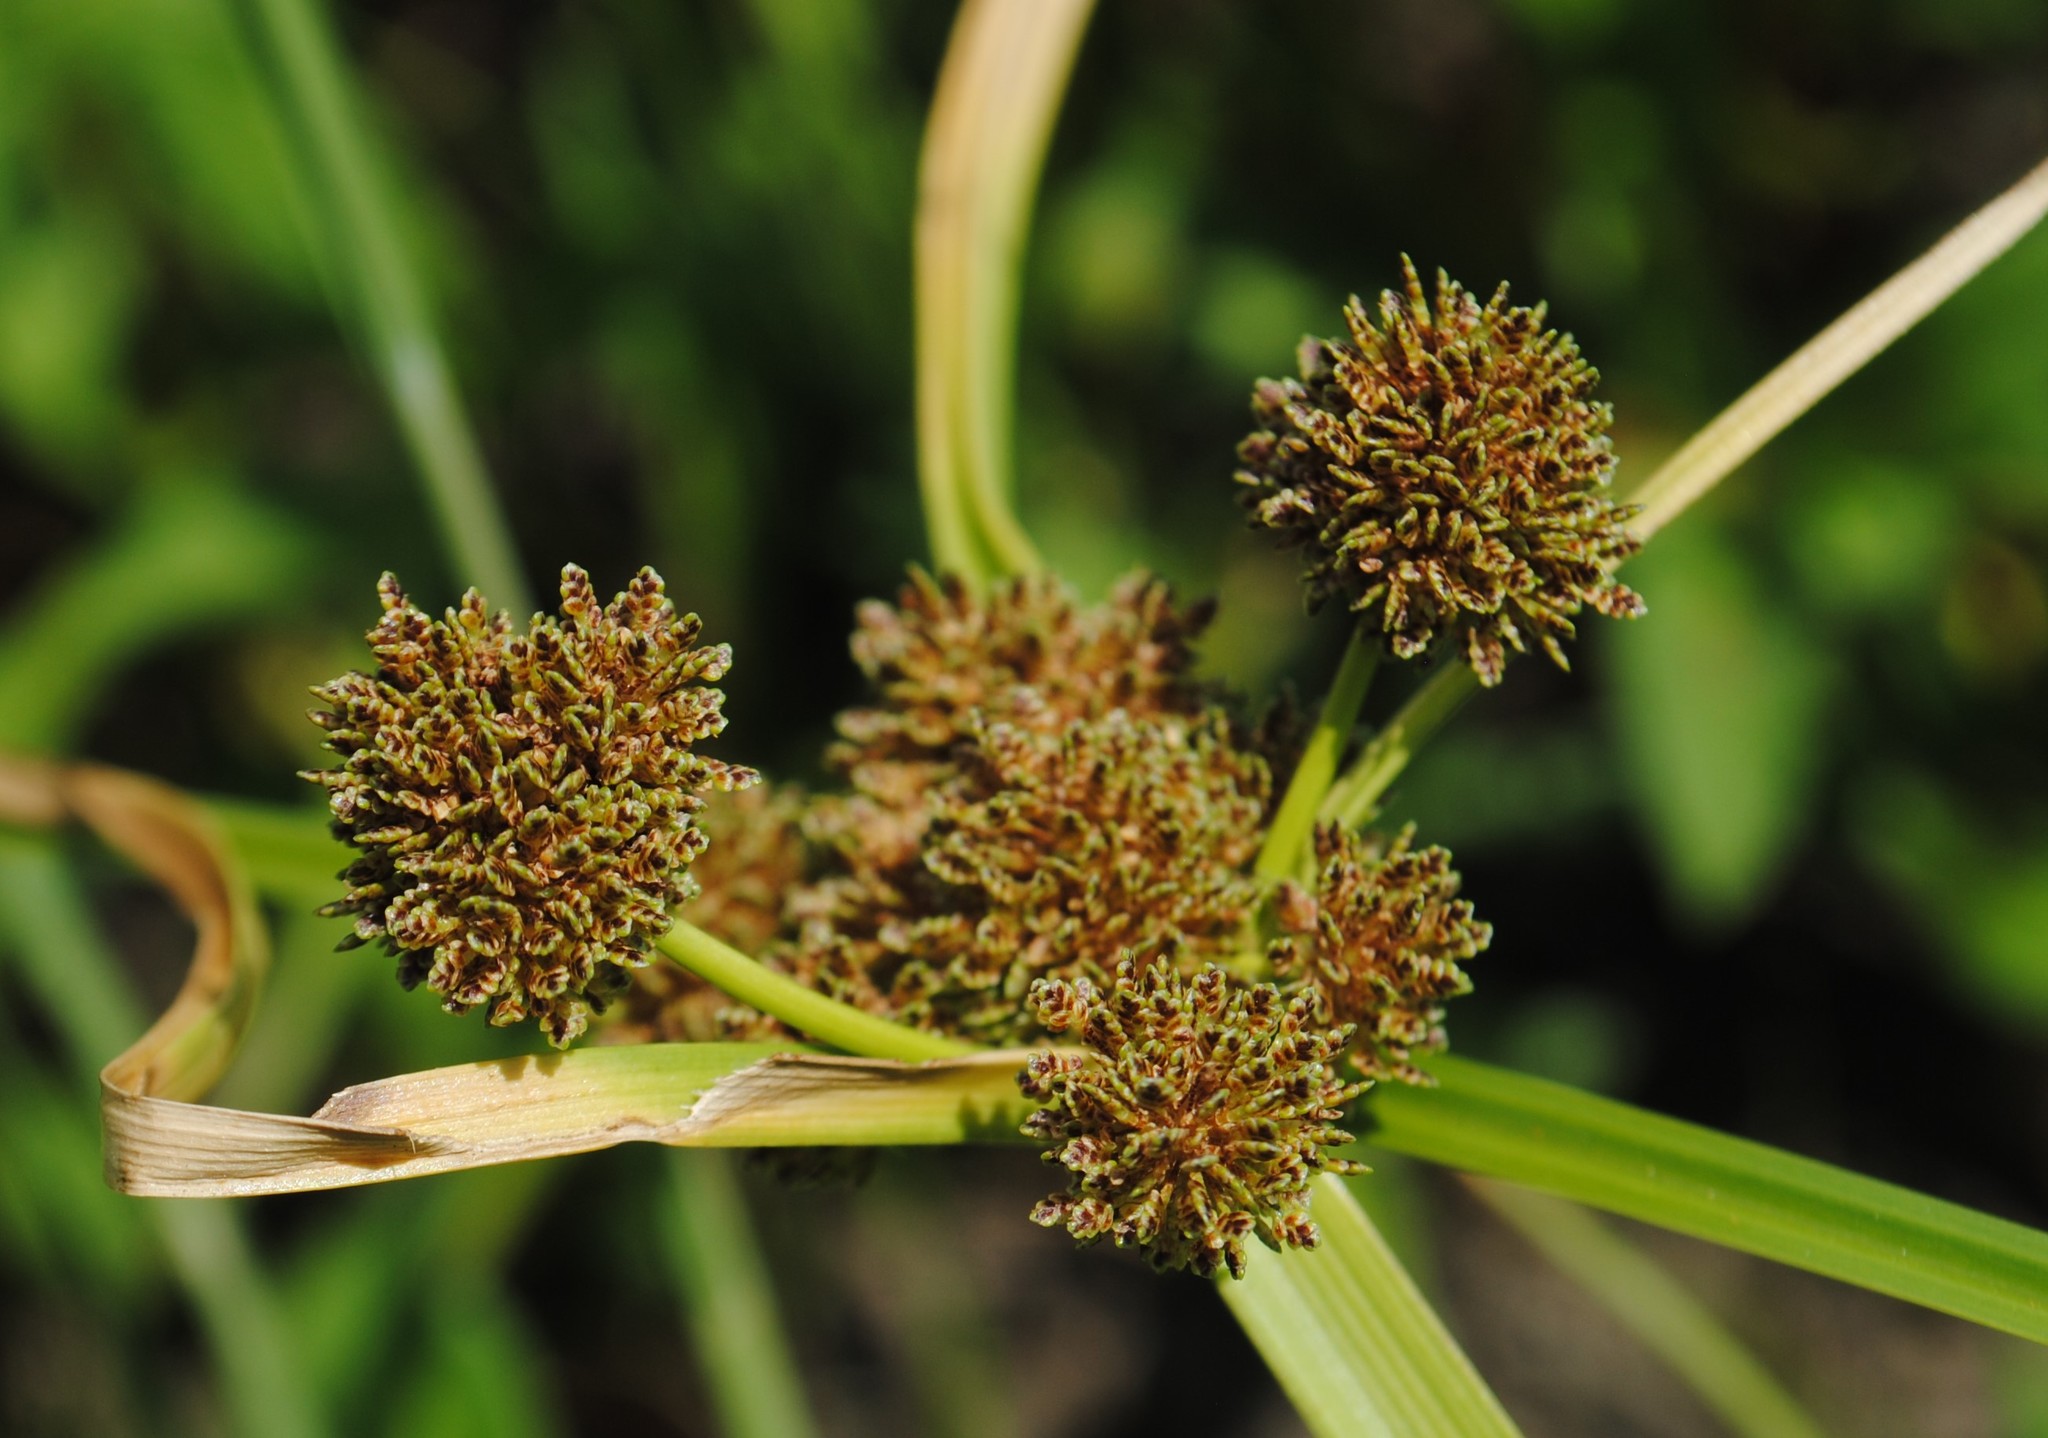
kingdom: Plantae
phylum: Tracheophyta
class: Liliopsida
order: Poales
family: Cyperaceae
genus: Cyperus
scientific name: Cyperus difformis
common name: Variable flatsedge
